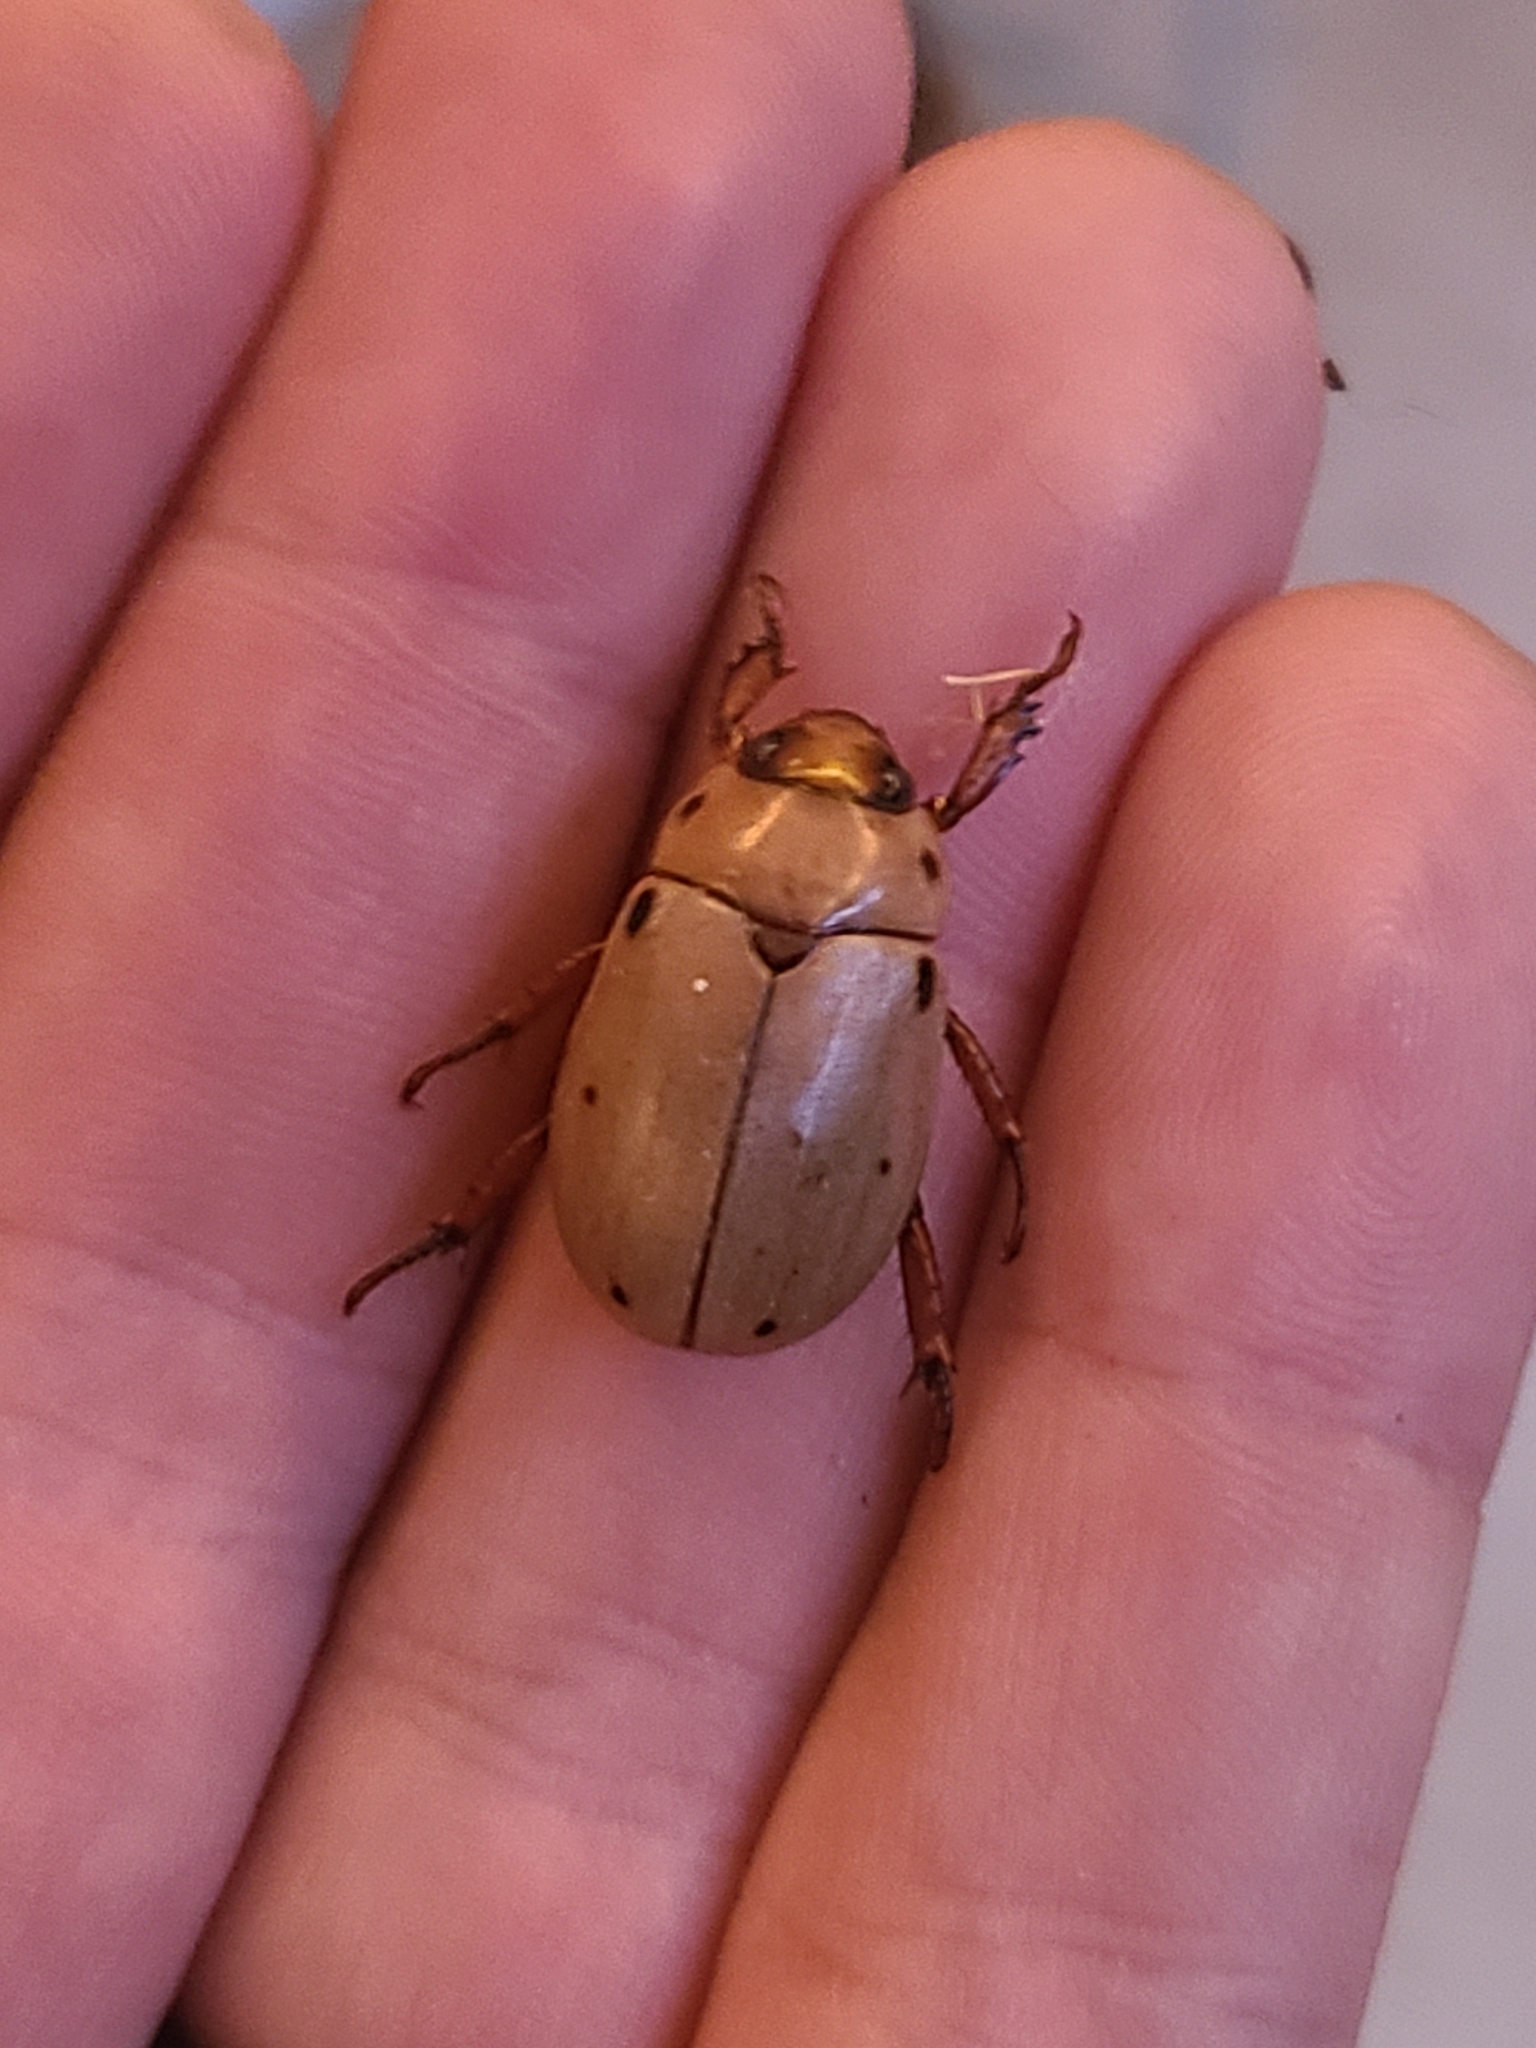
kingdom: Animalia
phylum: Arthropoda
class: Insecta
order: Coleoptera
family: Scarabaeidae
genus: Pelidnota
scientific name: Pelidnota punctata
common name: Grapevine beetle
